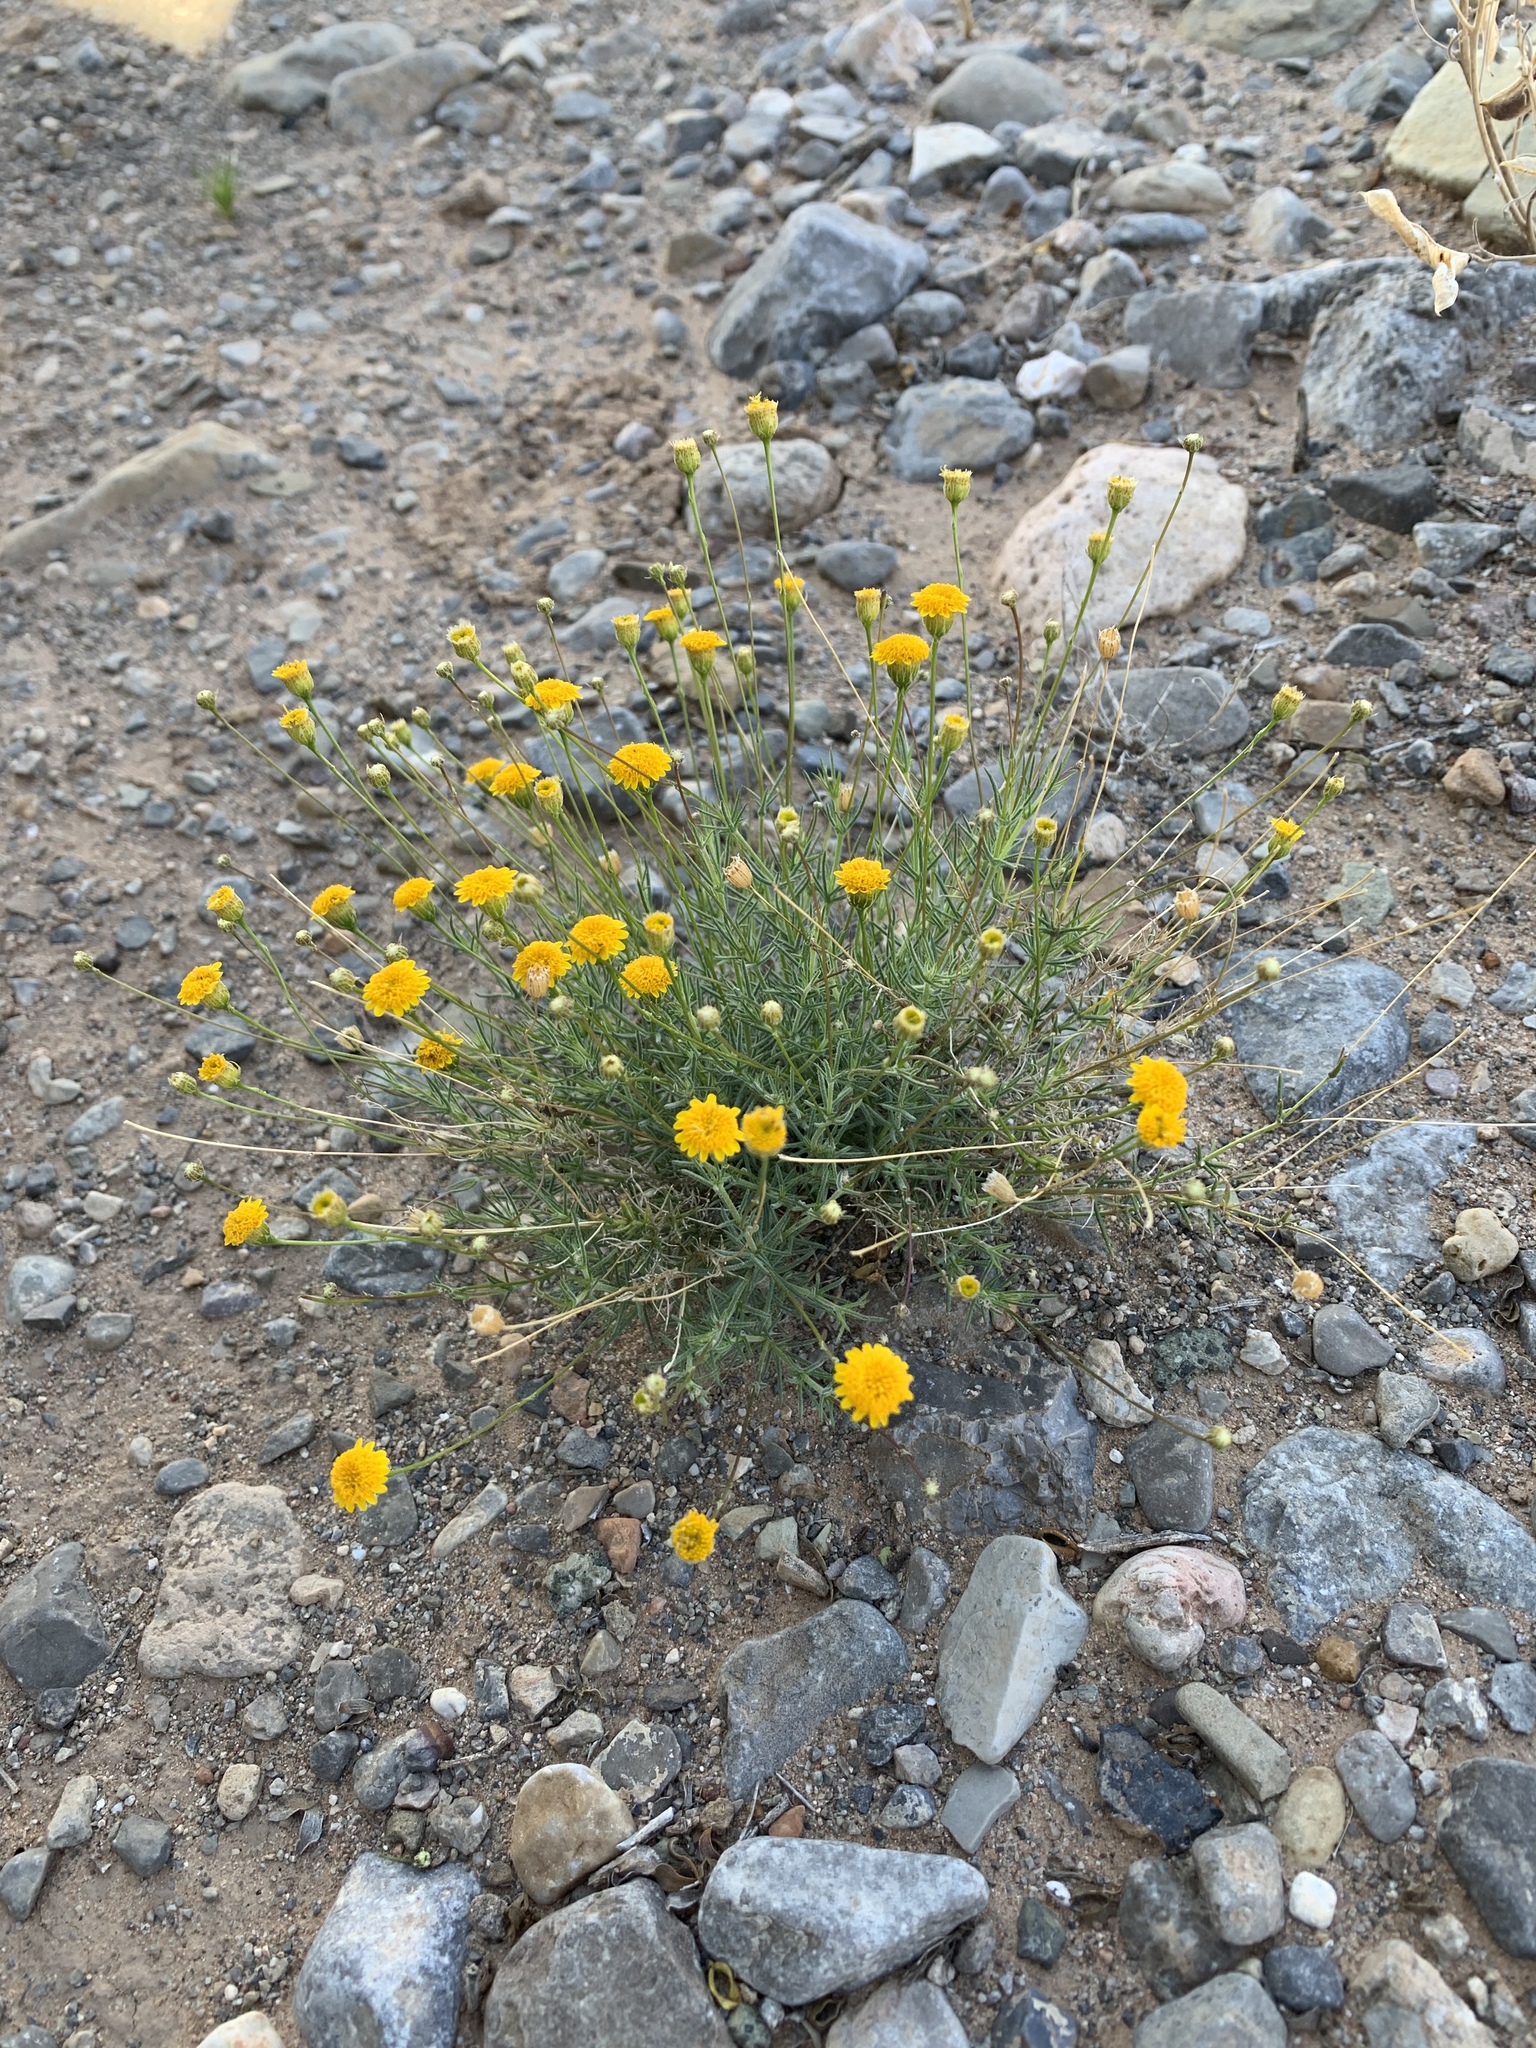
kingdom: Plantae
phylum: Tracheophyta
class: Magnoliopsida
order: Asterales
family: Asteraceae
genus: Thymophylla
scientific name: Thymophylla pentachaeta
